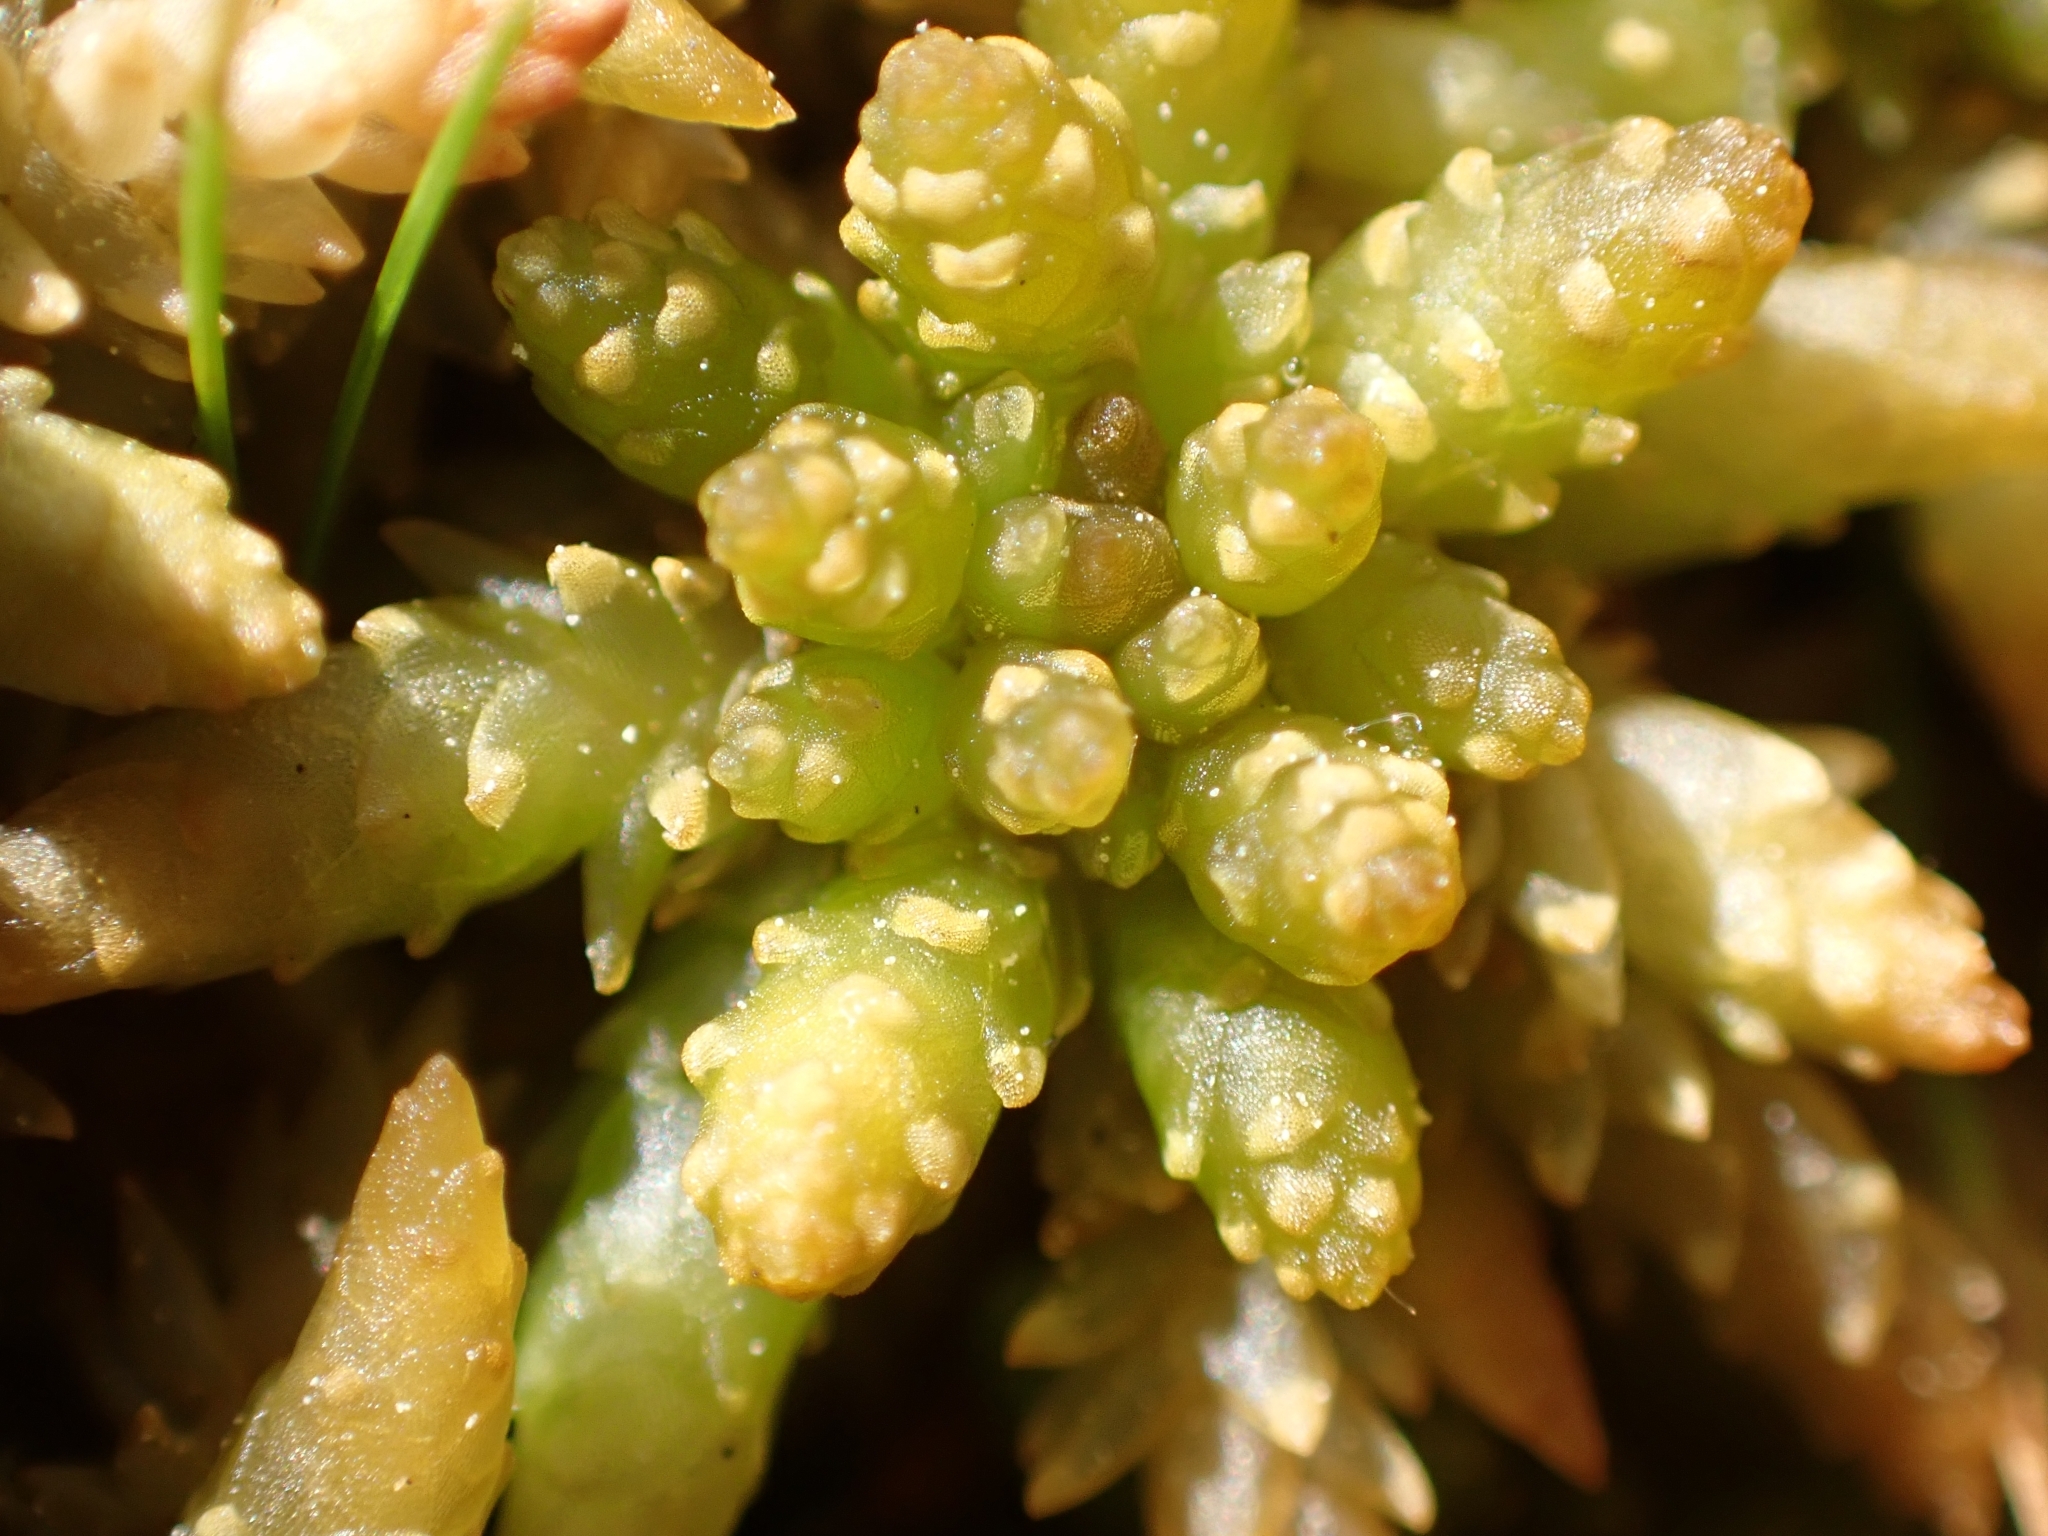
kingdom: Plantae
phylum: Bryophyta
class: Sphagnopsida
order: Sphagnales
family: Sphagnaceae
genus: Sphagnum
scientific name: Sphagnum papillosum
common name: Papillose peat moss
